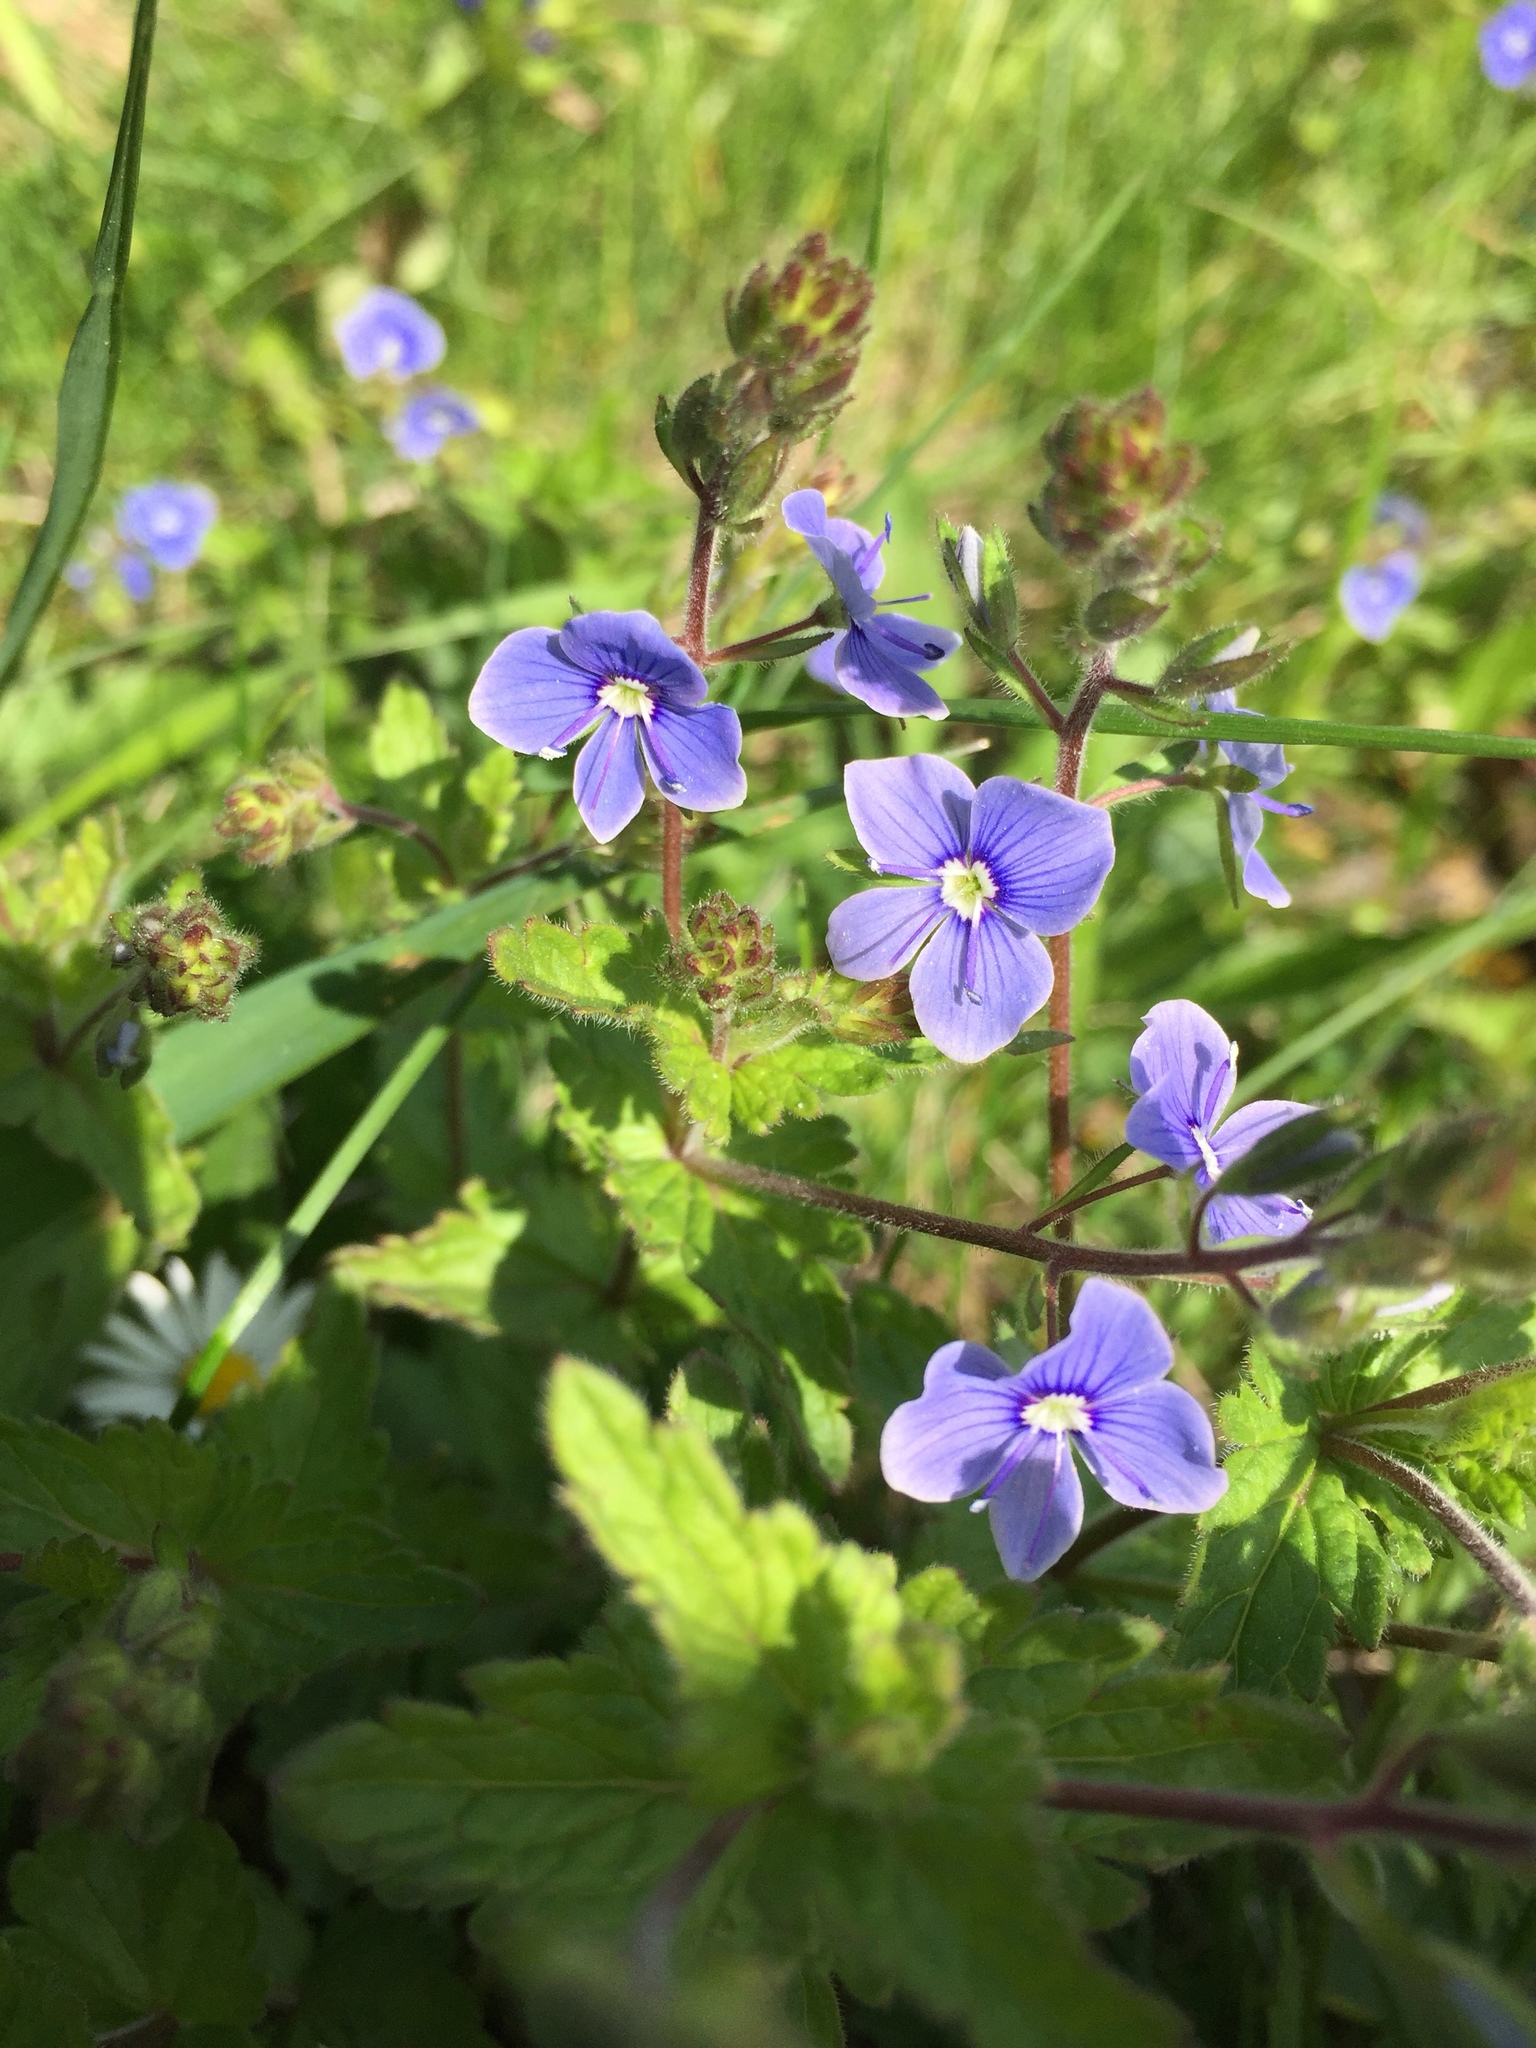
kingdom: Plantae
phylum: Tracheophyta
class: Magnoliopsida
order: Lamiales
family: Plantaginaceae
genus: Veronica
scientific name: Veronica chamaedrys
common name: Germander speedwell
